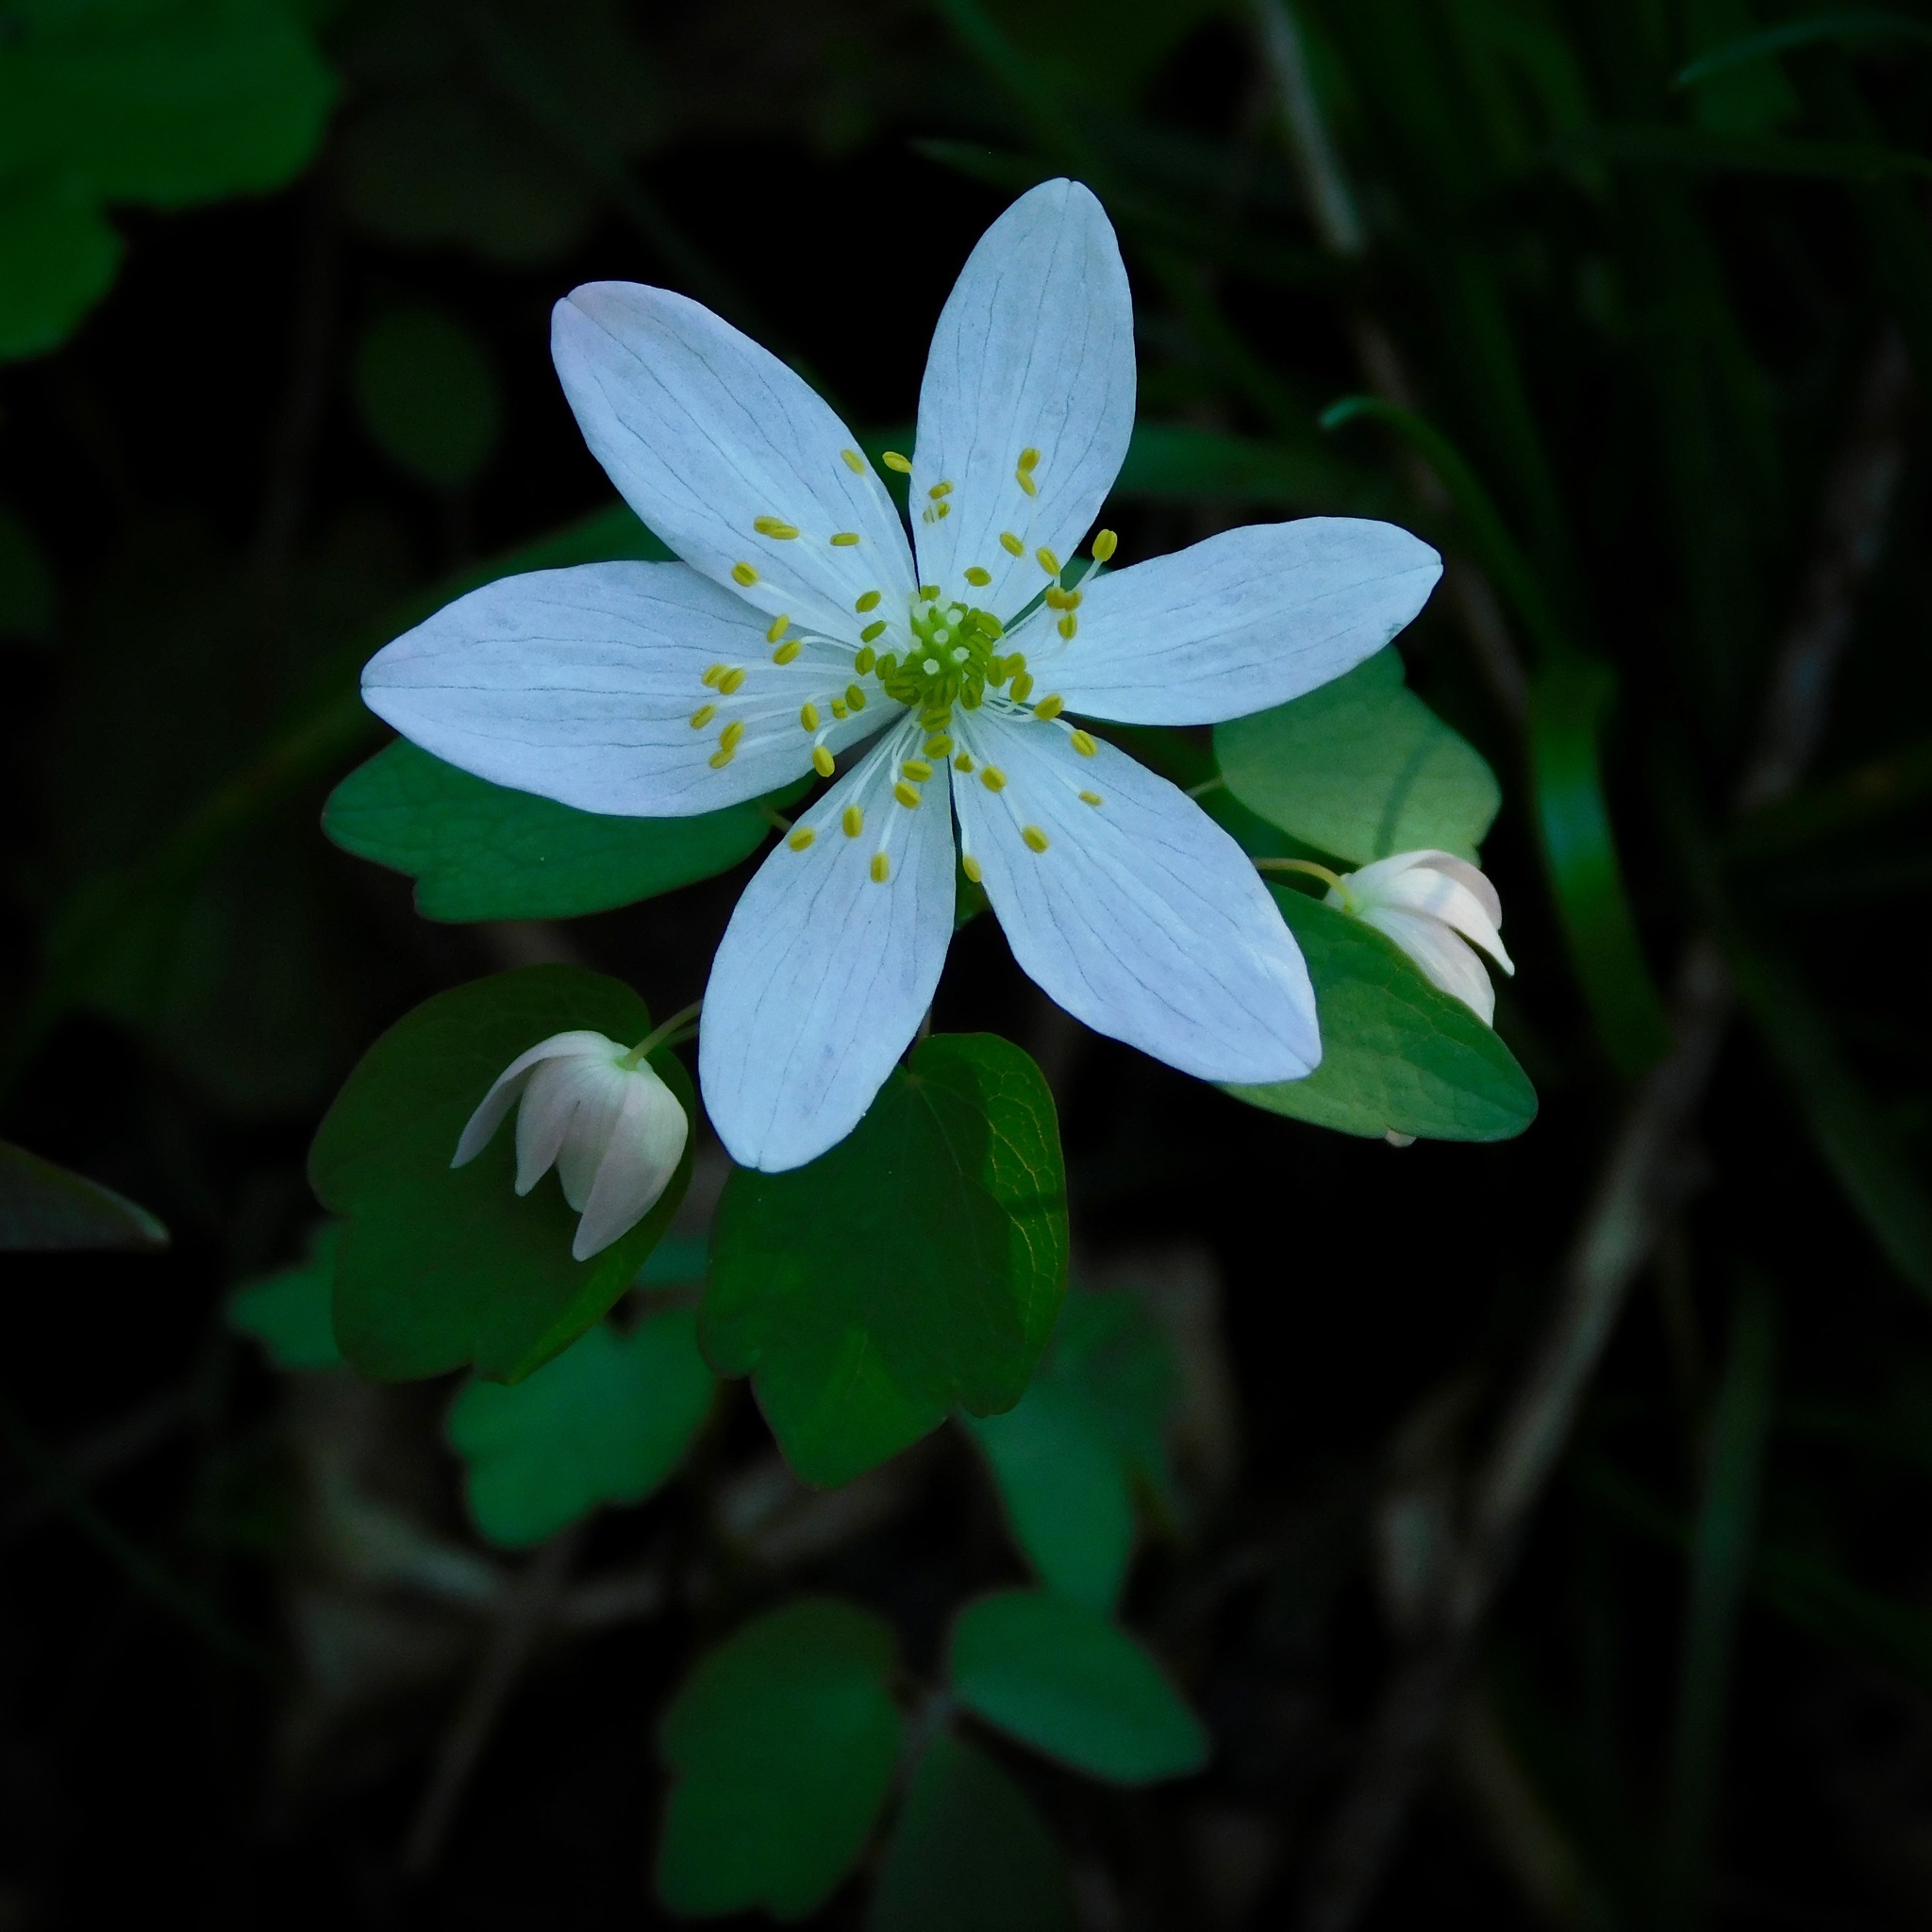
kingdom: Plantae
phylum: Tracheophyta
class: Magnoliopsida
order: Ranunculales
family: Ranunculaceae
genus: Thalictrum
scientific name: Thalictrum thalictroides
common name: Rue-anemone
